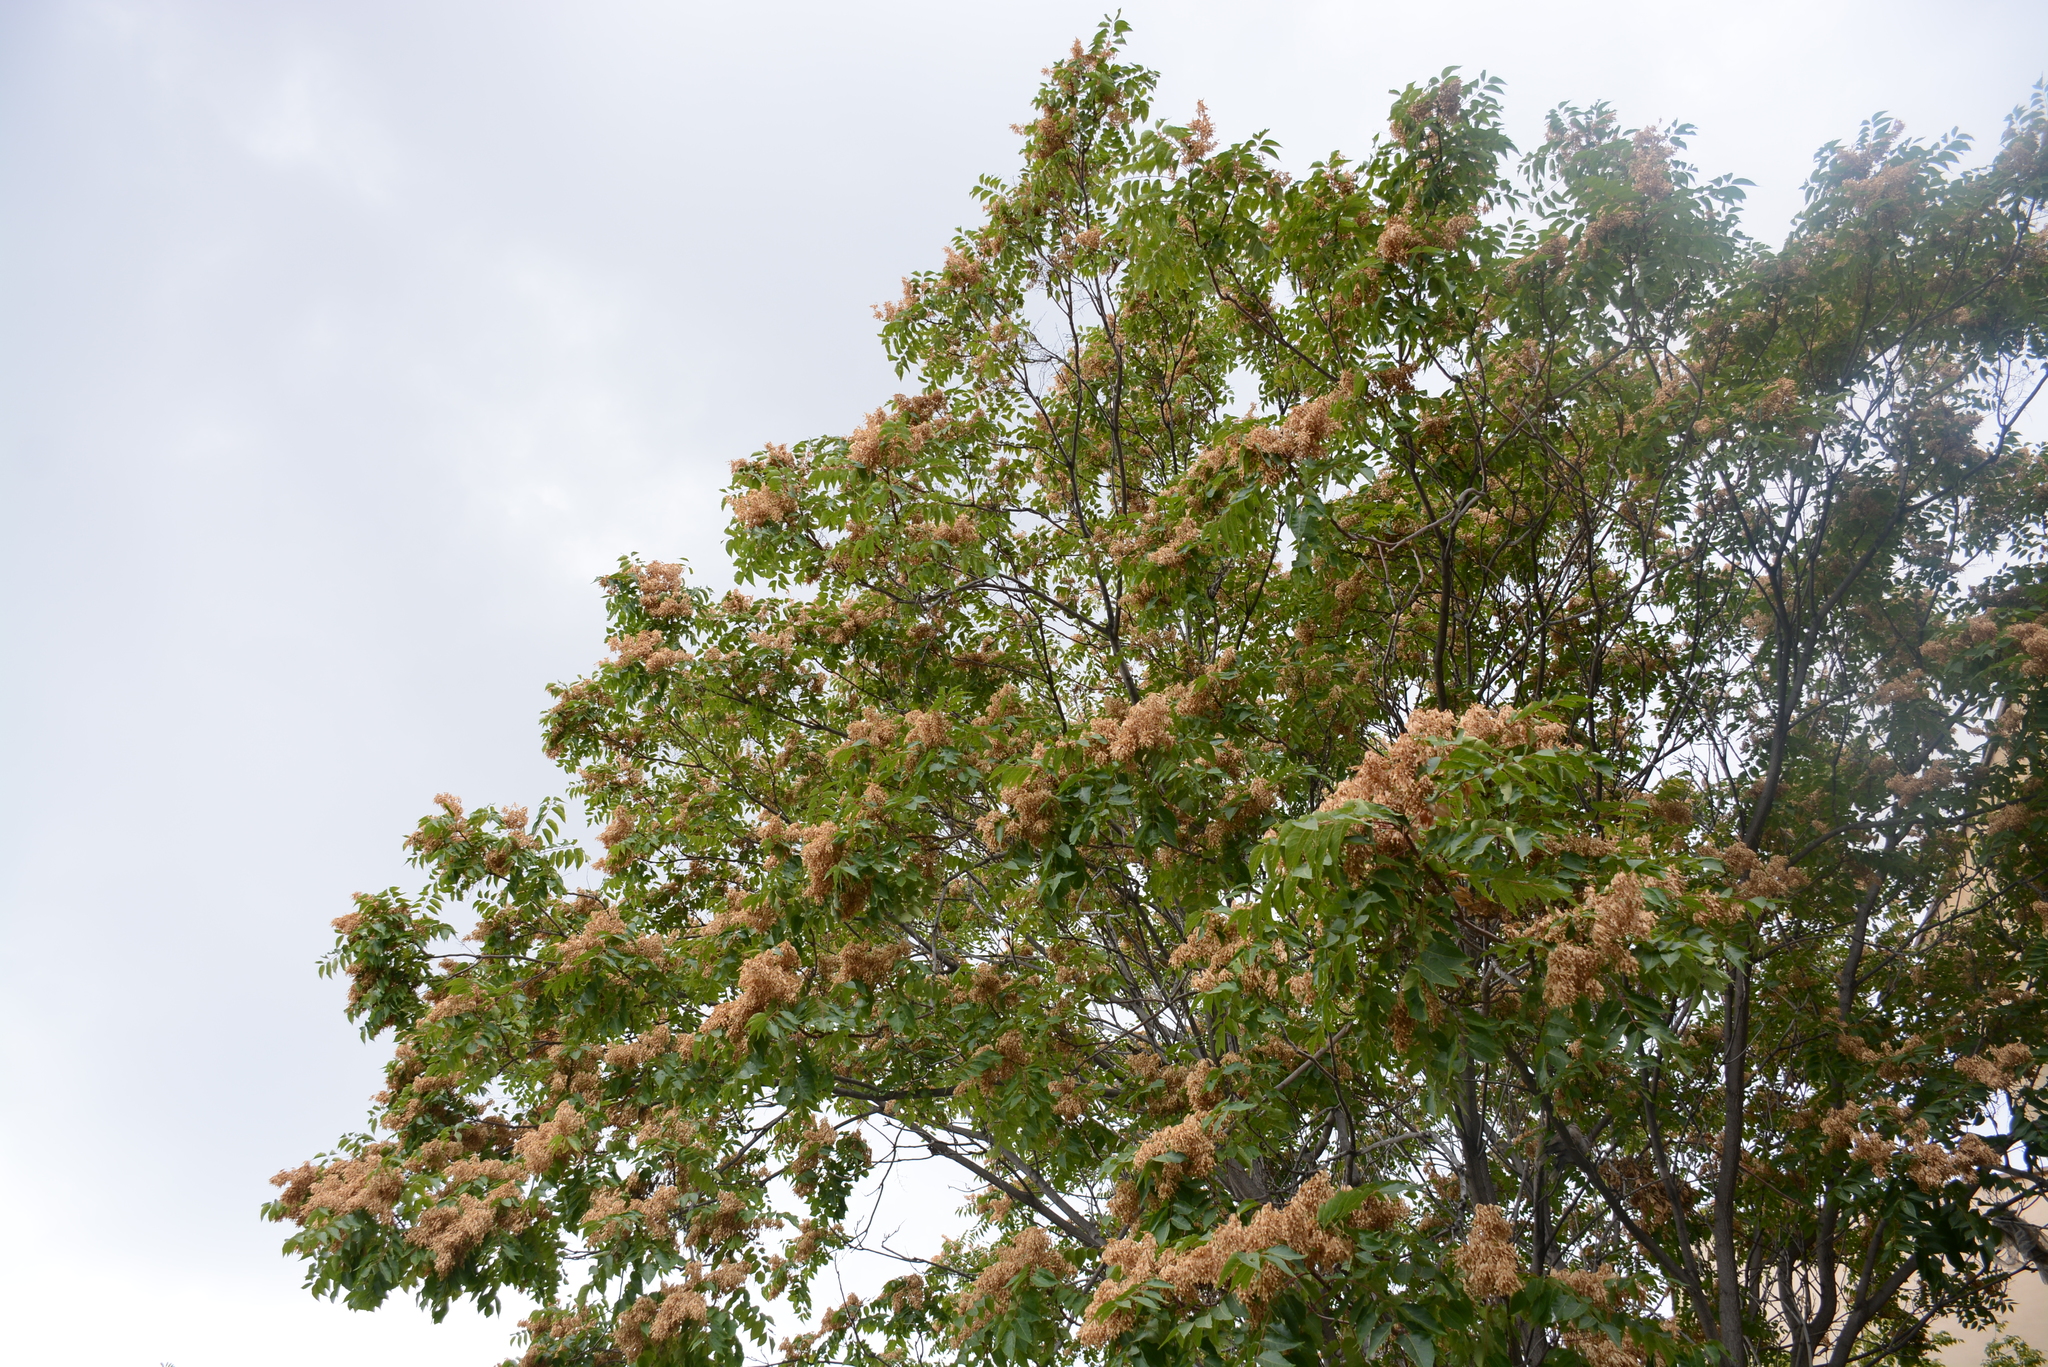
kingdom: Plantae
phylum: Tracheophyta
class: Magnoliopsida
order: Sapindales
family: Simaroubaceae
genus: Ailanthus
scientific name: Ailanthus altissima
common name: Tree-of-heaven
